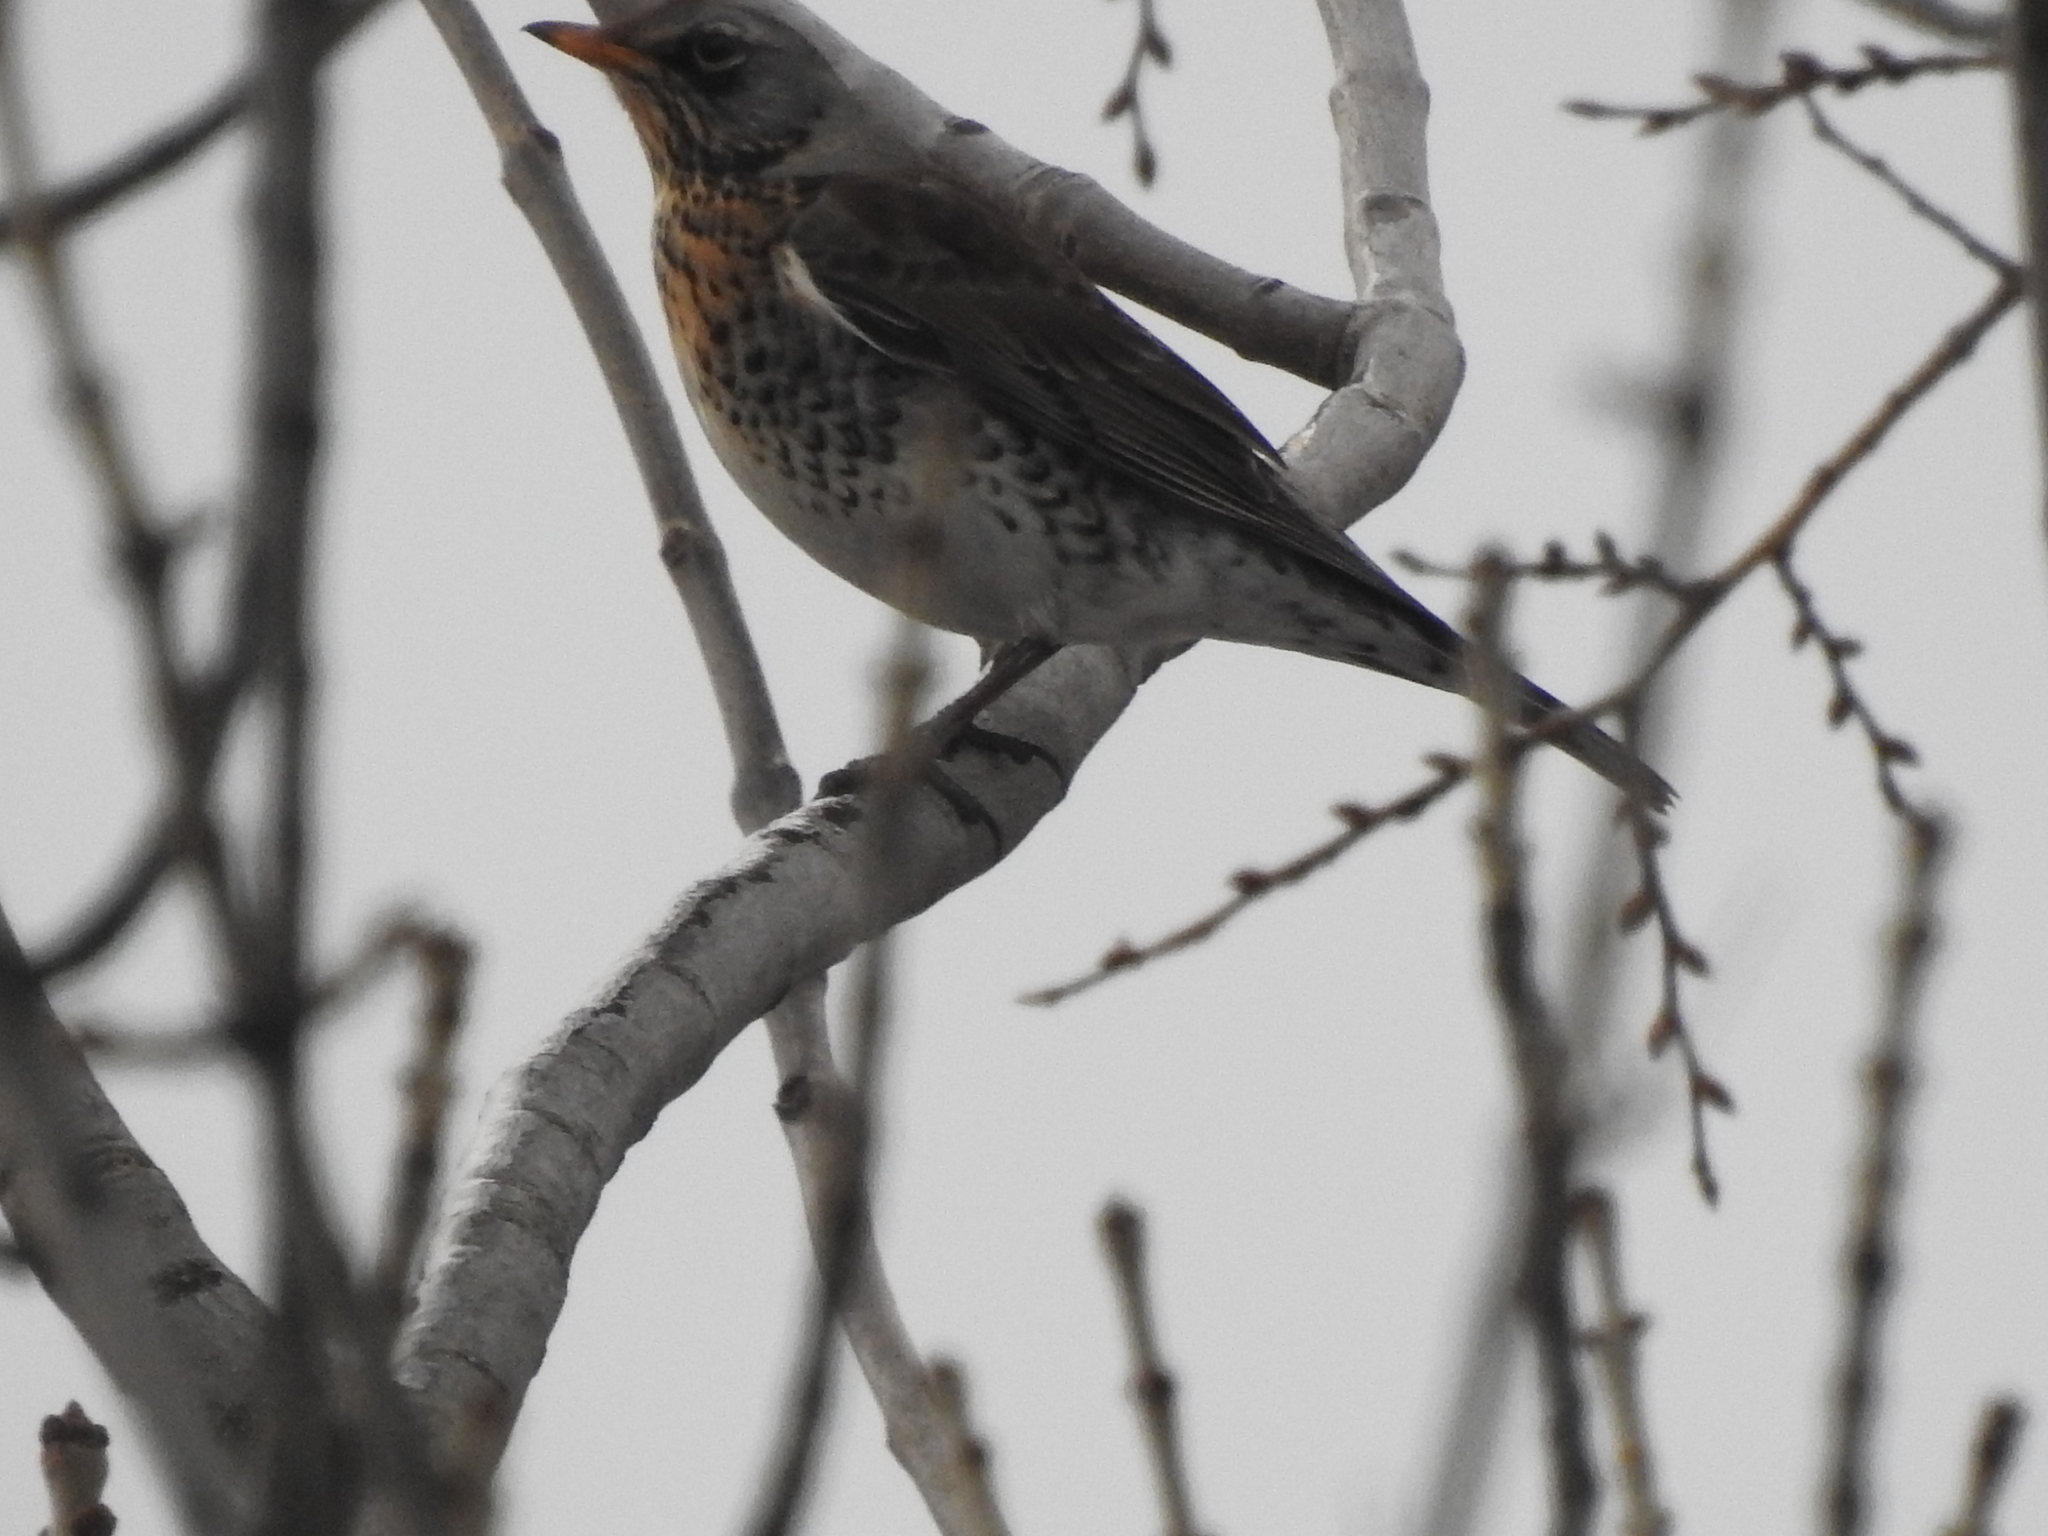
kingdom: Animalia
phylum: Chordata
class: Aves
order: Passeriformes
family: Turdidae
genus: Turdus
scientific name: Turdus pilaris
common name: Fieldfare
